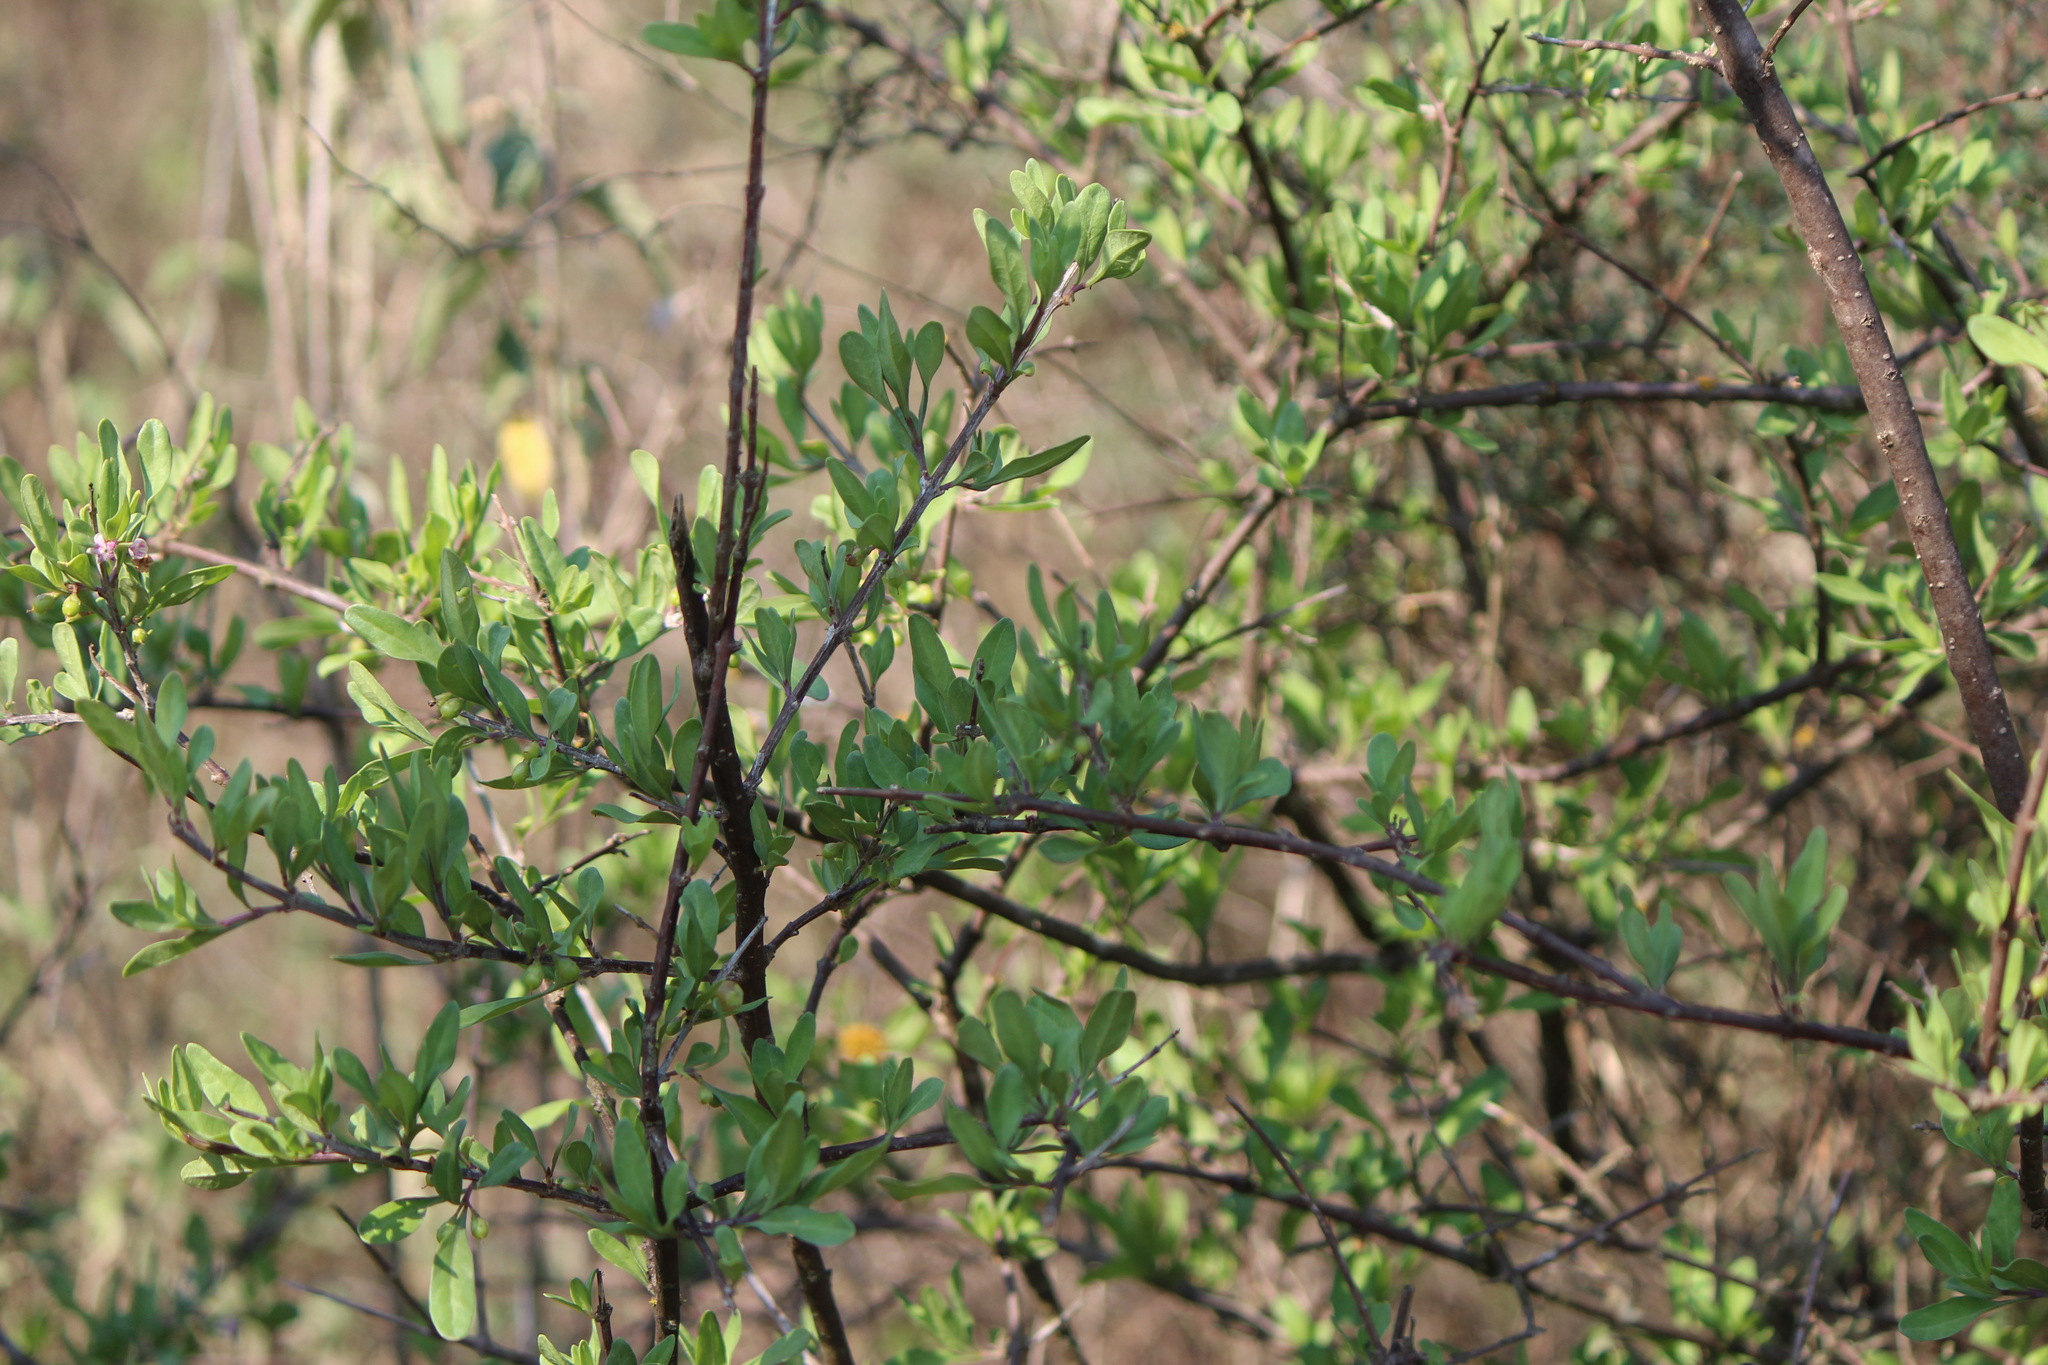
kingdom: Plantae
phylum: Tracheophyta
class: Magnoliopsida
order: Lamiales
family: Oleaceae
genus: Forestiera
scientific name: Forestiera phillyreoides
